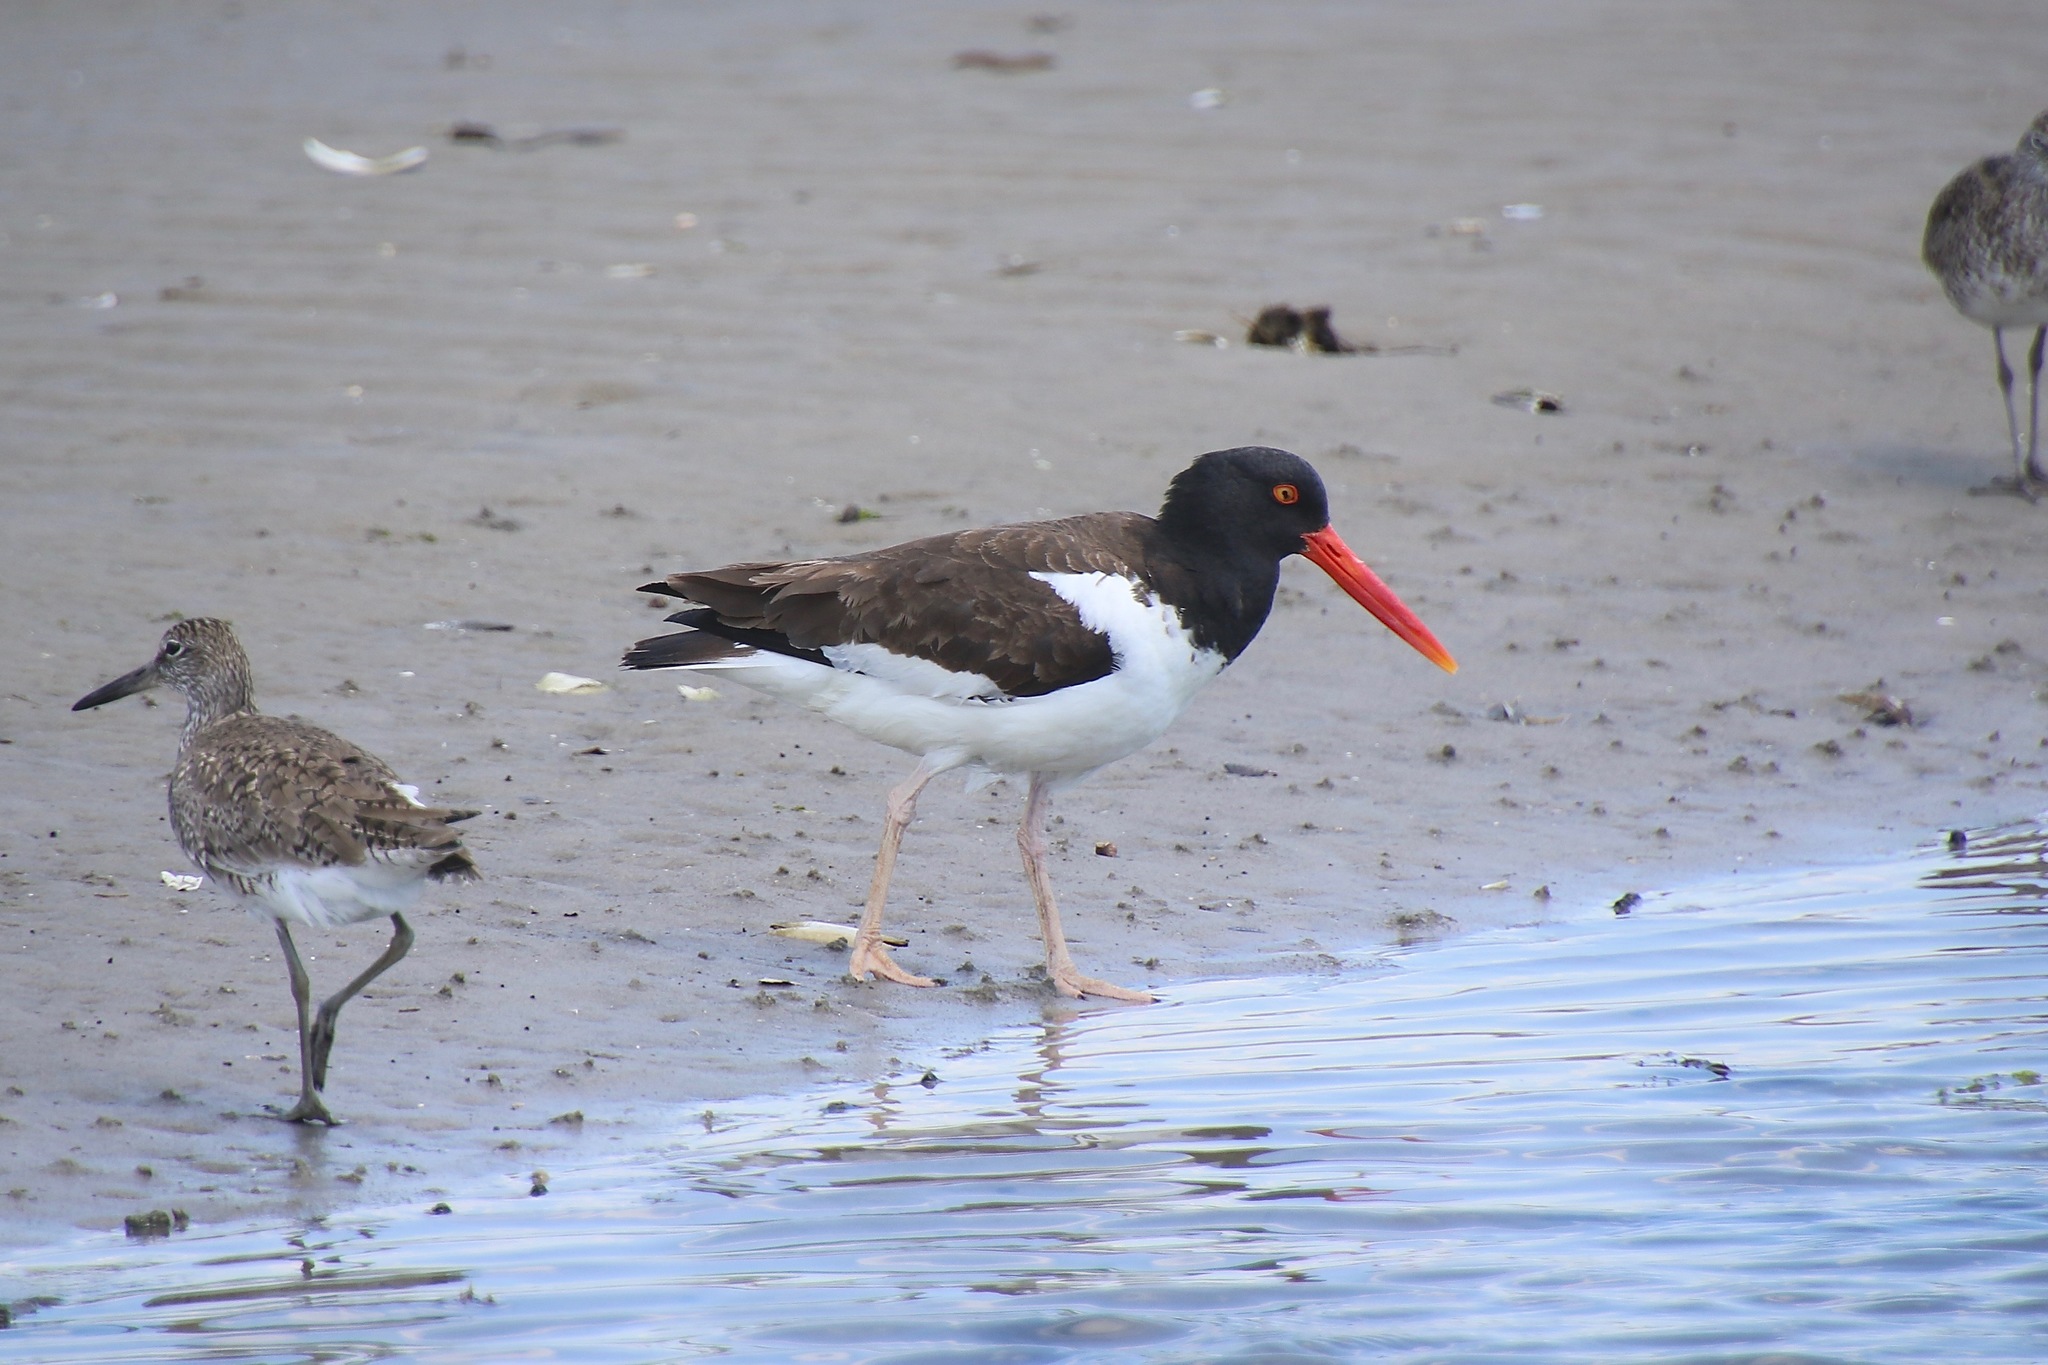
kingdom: Animalia
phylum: Chordata
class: Aves
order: Charadriiformes
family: Haematopodidae
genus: Haematopus
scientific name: Haematopus palliatus
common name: American oystercatcher
